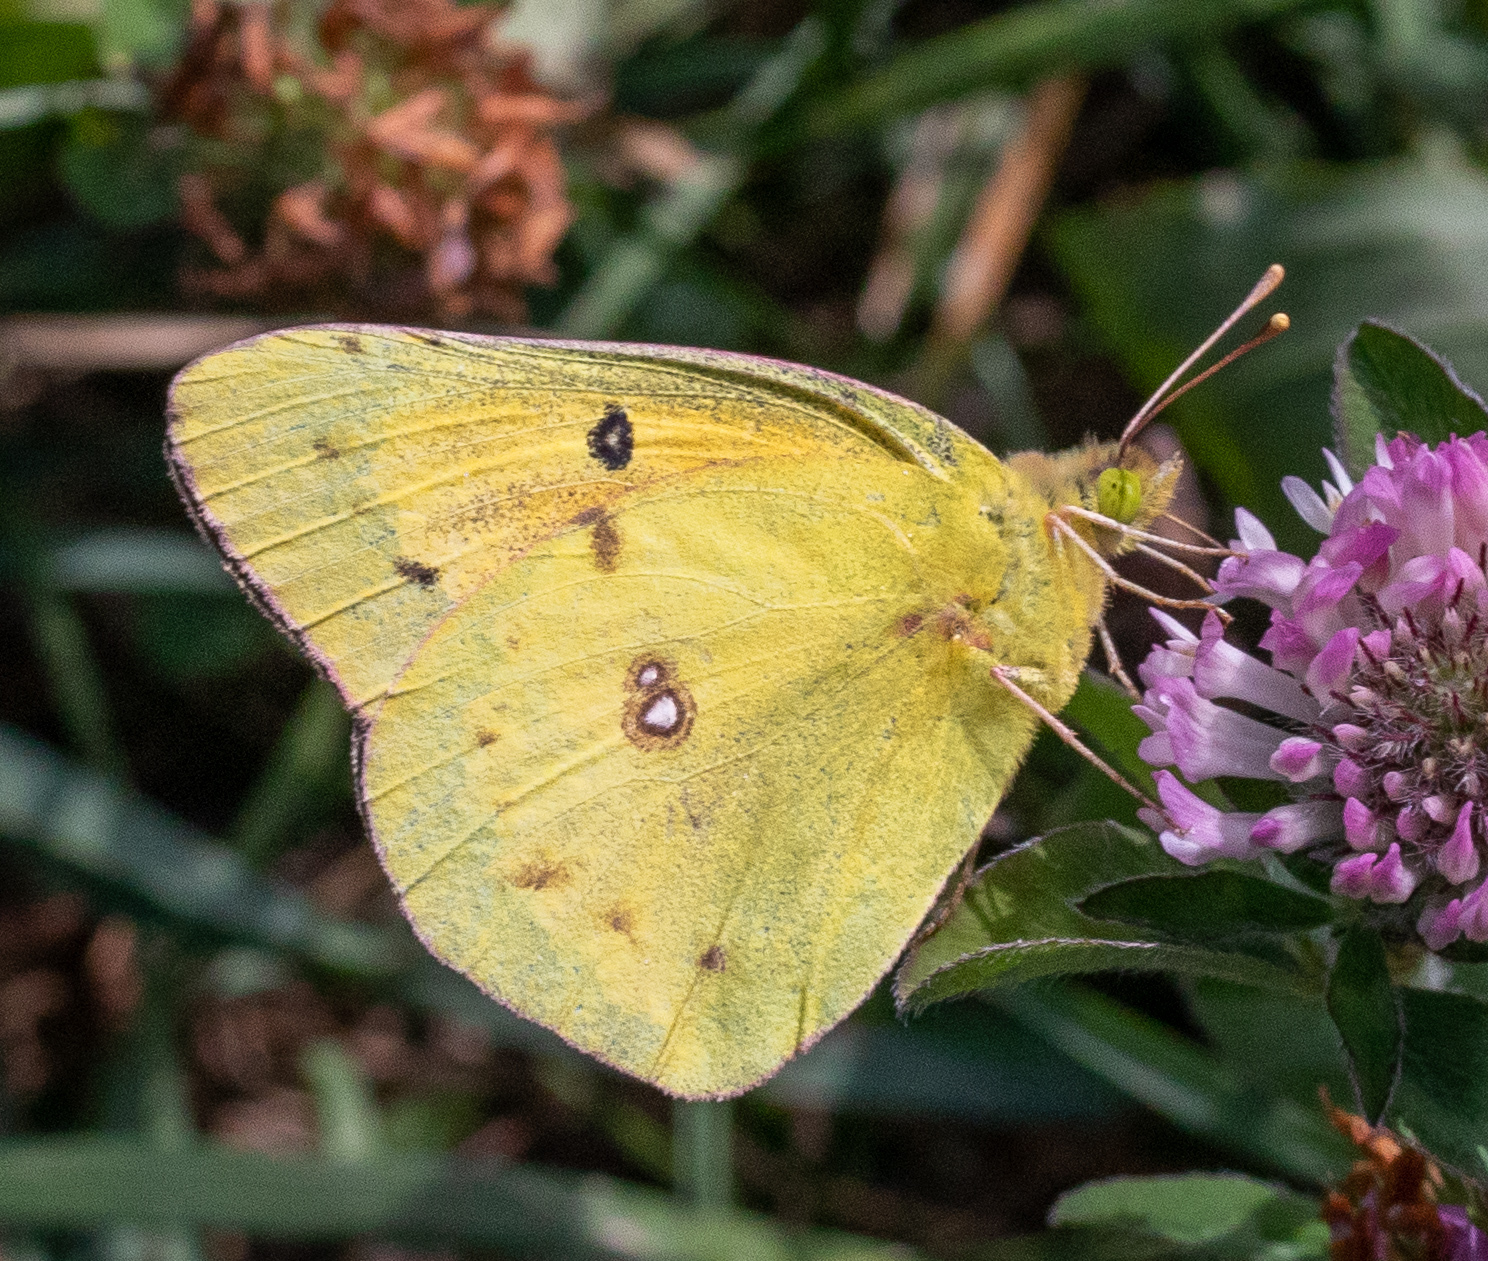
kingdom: Animalia
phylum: Arthropoda
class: Insecta
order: Lepidoptera
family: Pieridae
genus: Colias
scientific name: Colias eurytheme
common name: Alfalfa butterfly
